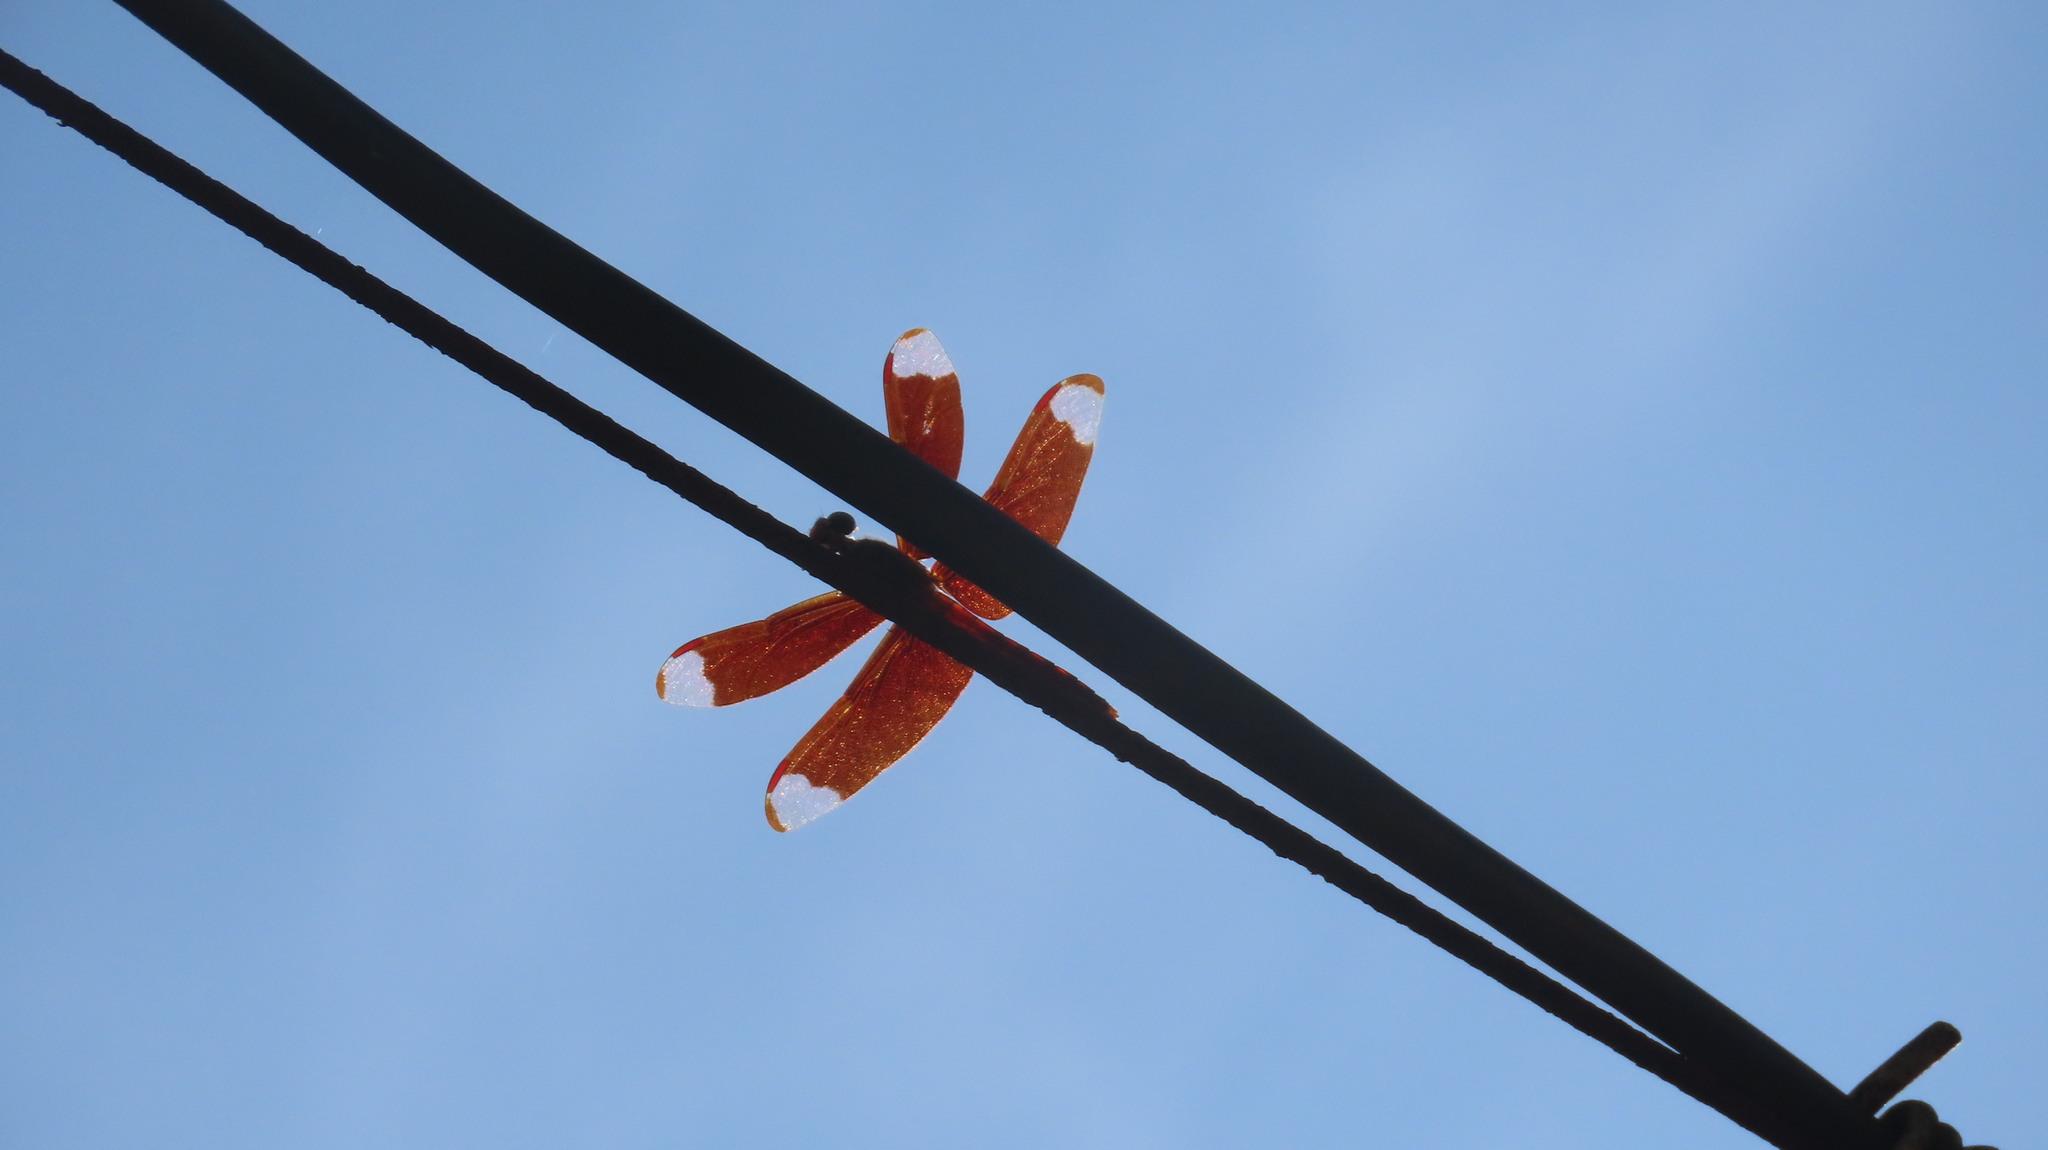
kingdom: Animalia
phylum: Arthropoda
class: Insecta
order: Odonata
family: Libellulidae
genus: Neurothemis
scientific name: Neurothemis fulvia
